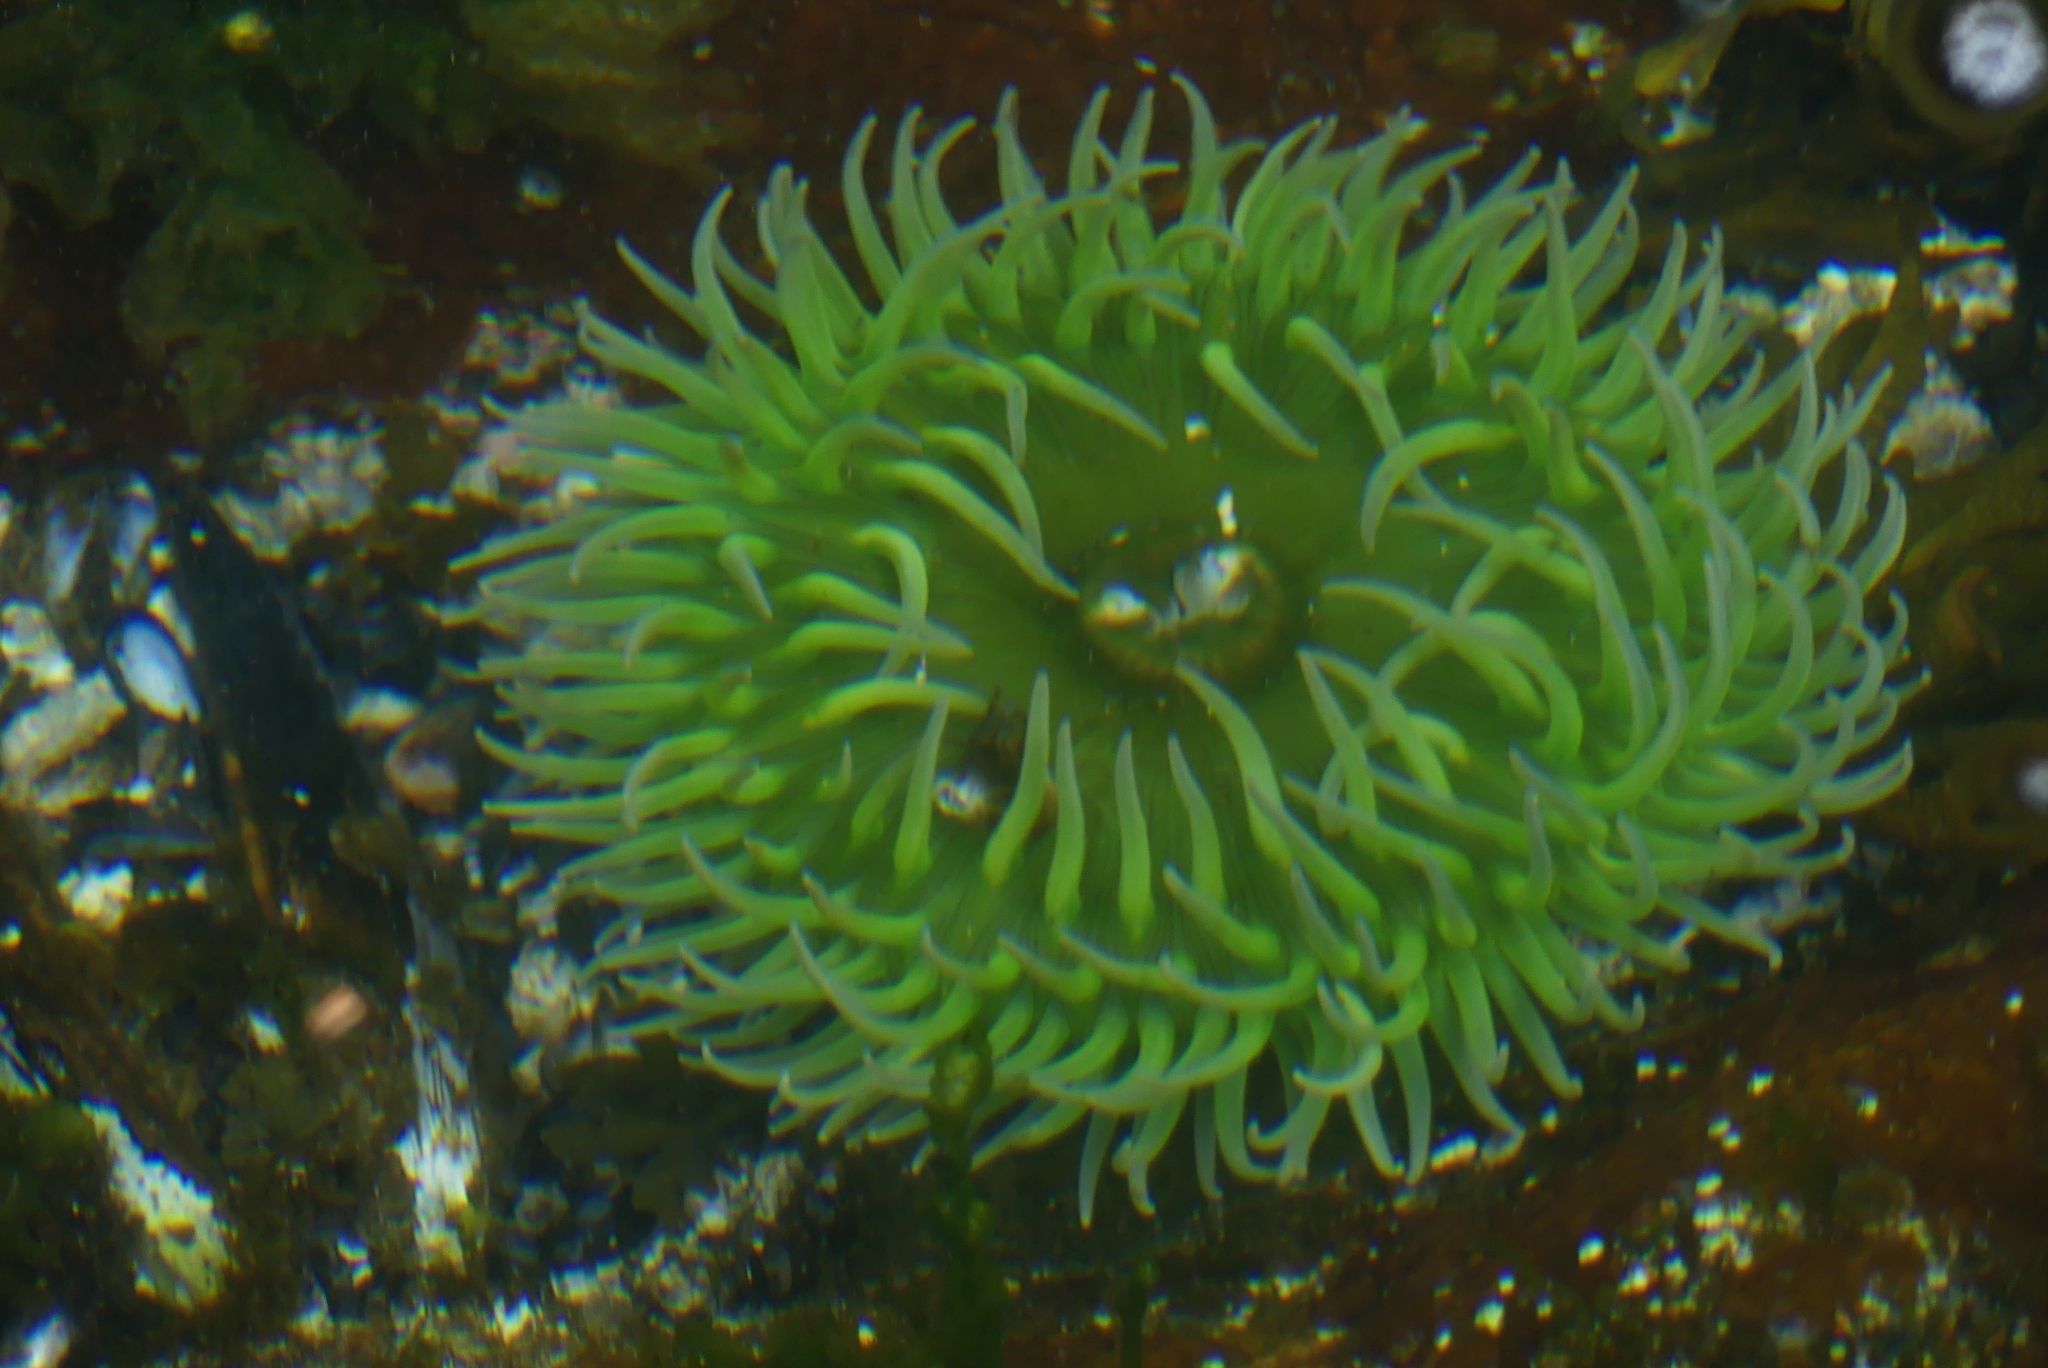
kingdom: Animalia
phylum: Cnidaria
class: Anthozoa
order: Actiniaria
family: Actiniidae
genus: Anthopleura
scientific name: Anthopleura xanthogrammica
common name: Giant green anemone
